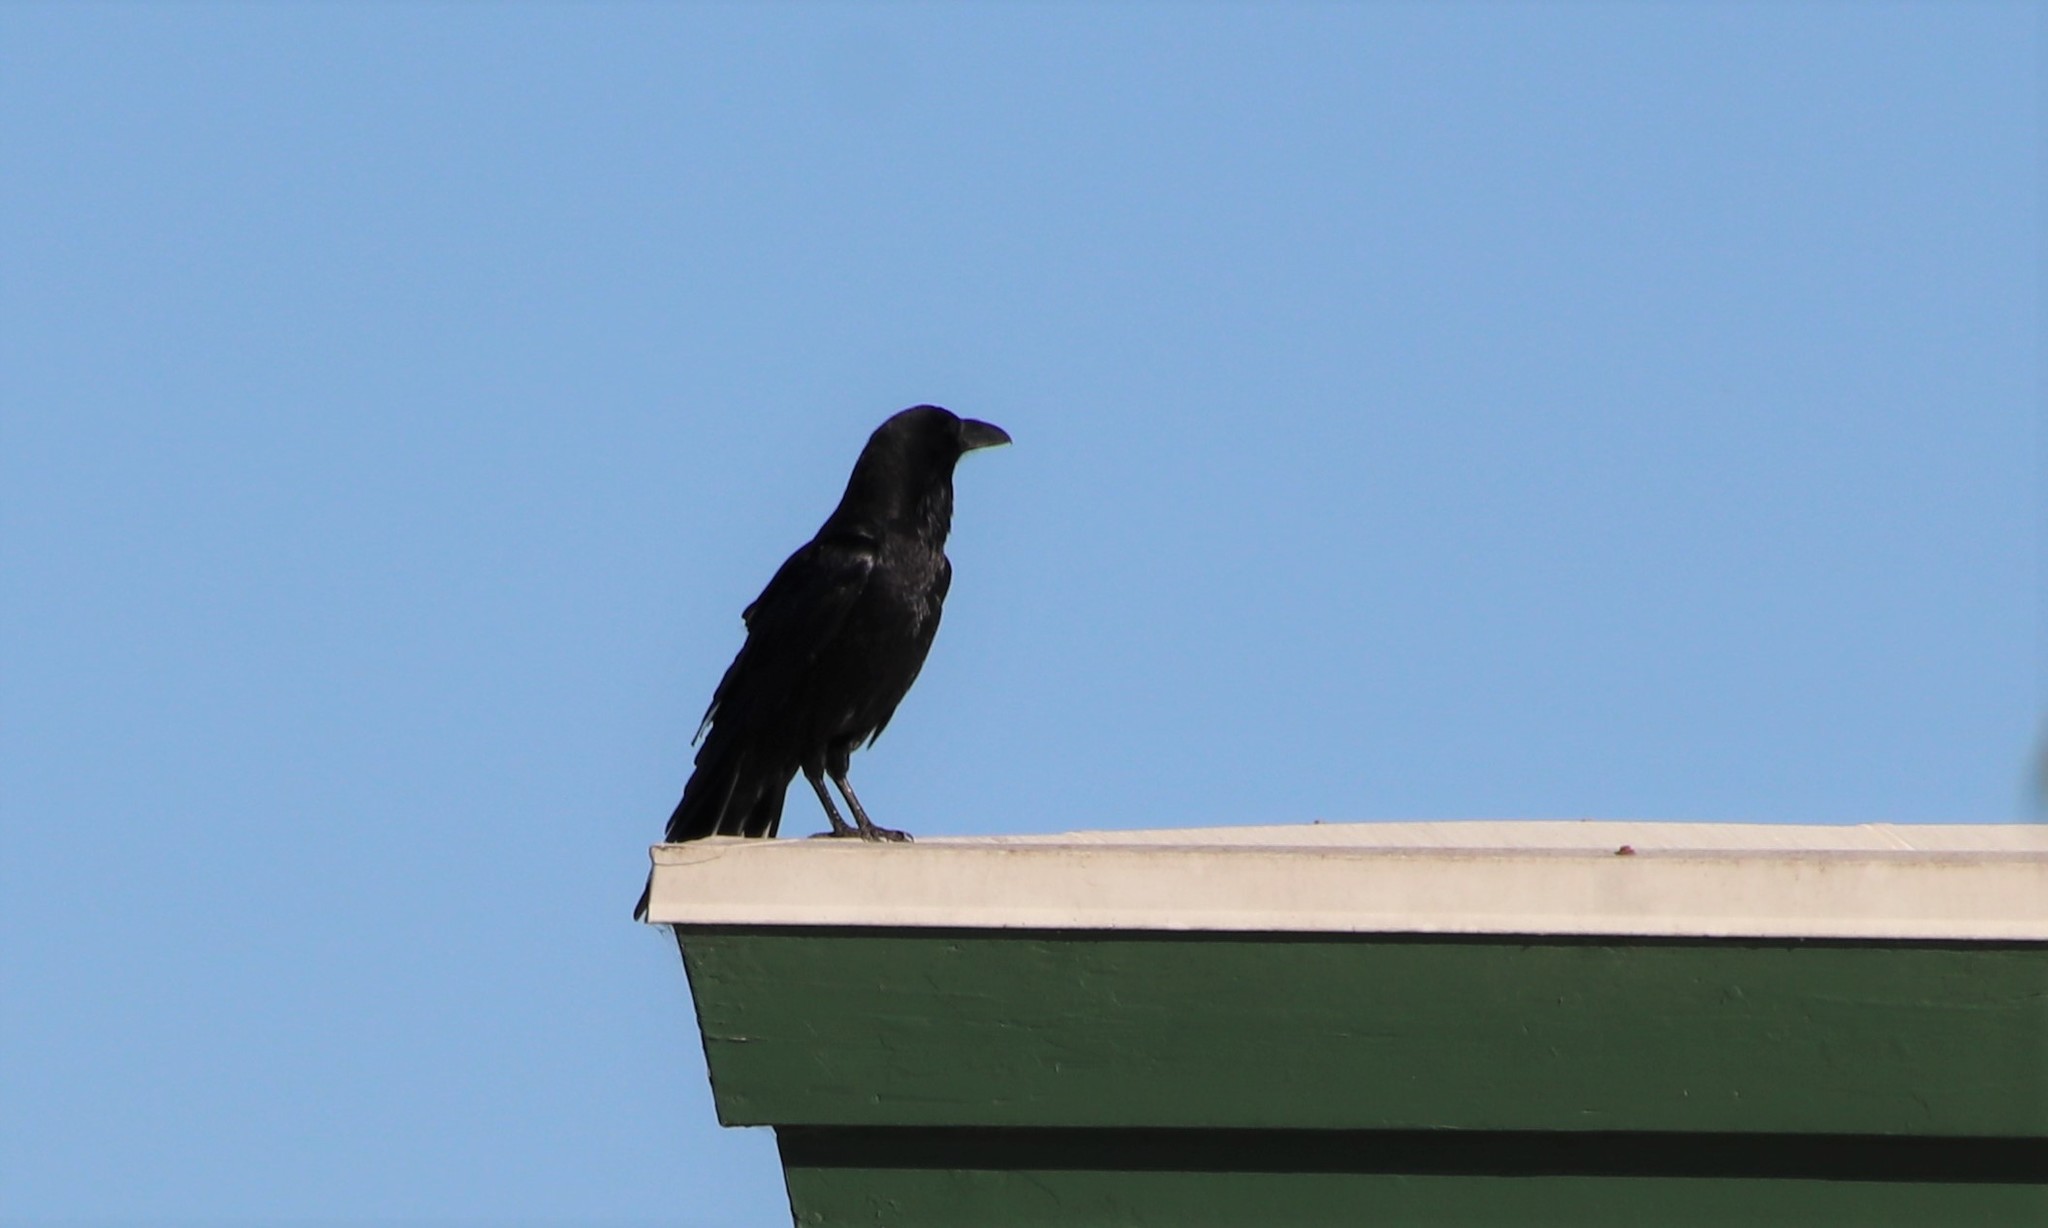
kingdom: Animalia
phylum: Chordata
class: Aves
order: Passeriformes
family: Corvidae
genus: Corvus
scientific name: Corvus corax
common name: Common raven
